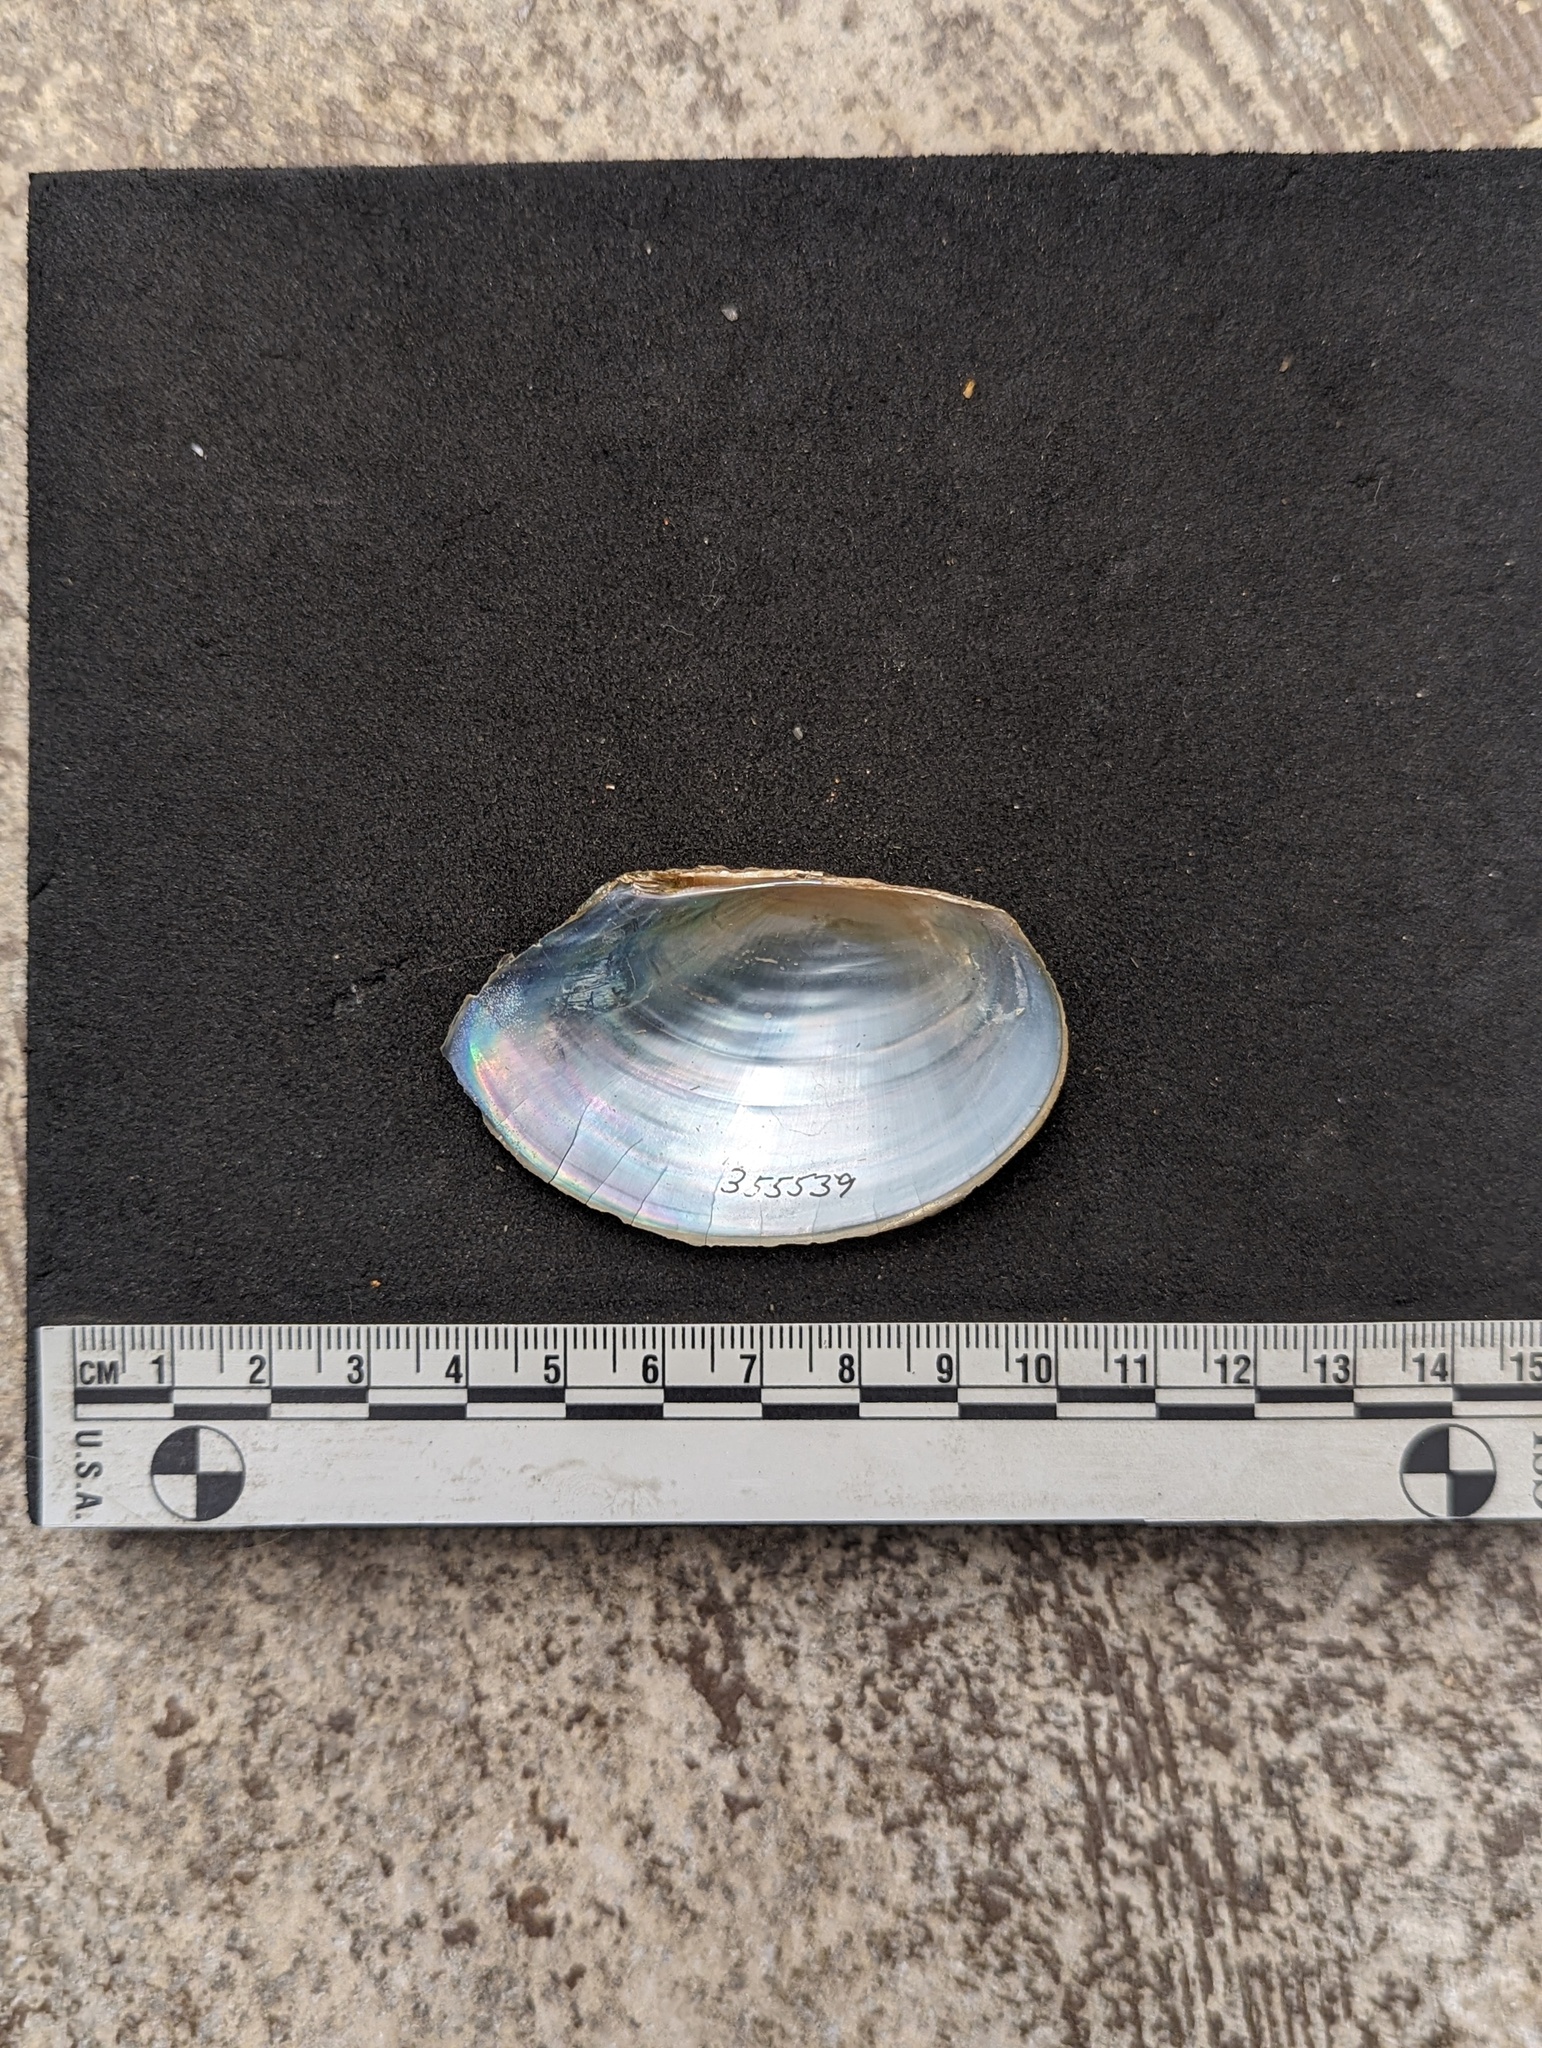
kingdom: Animalia
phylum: Mollusca
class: Bivalvia
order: Unionida
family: Unionidae
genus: Utterbackiana
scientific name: Utterbackiana couperiana
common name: Barrel floater
